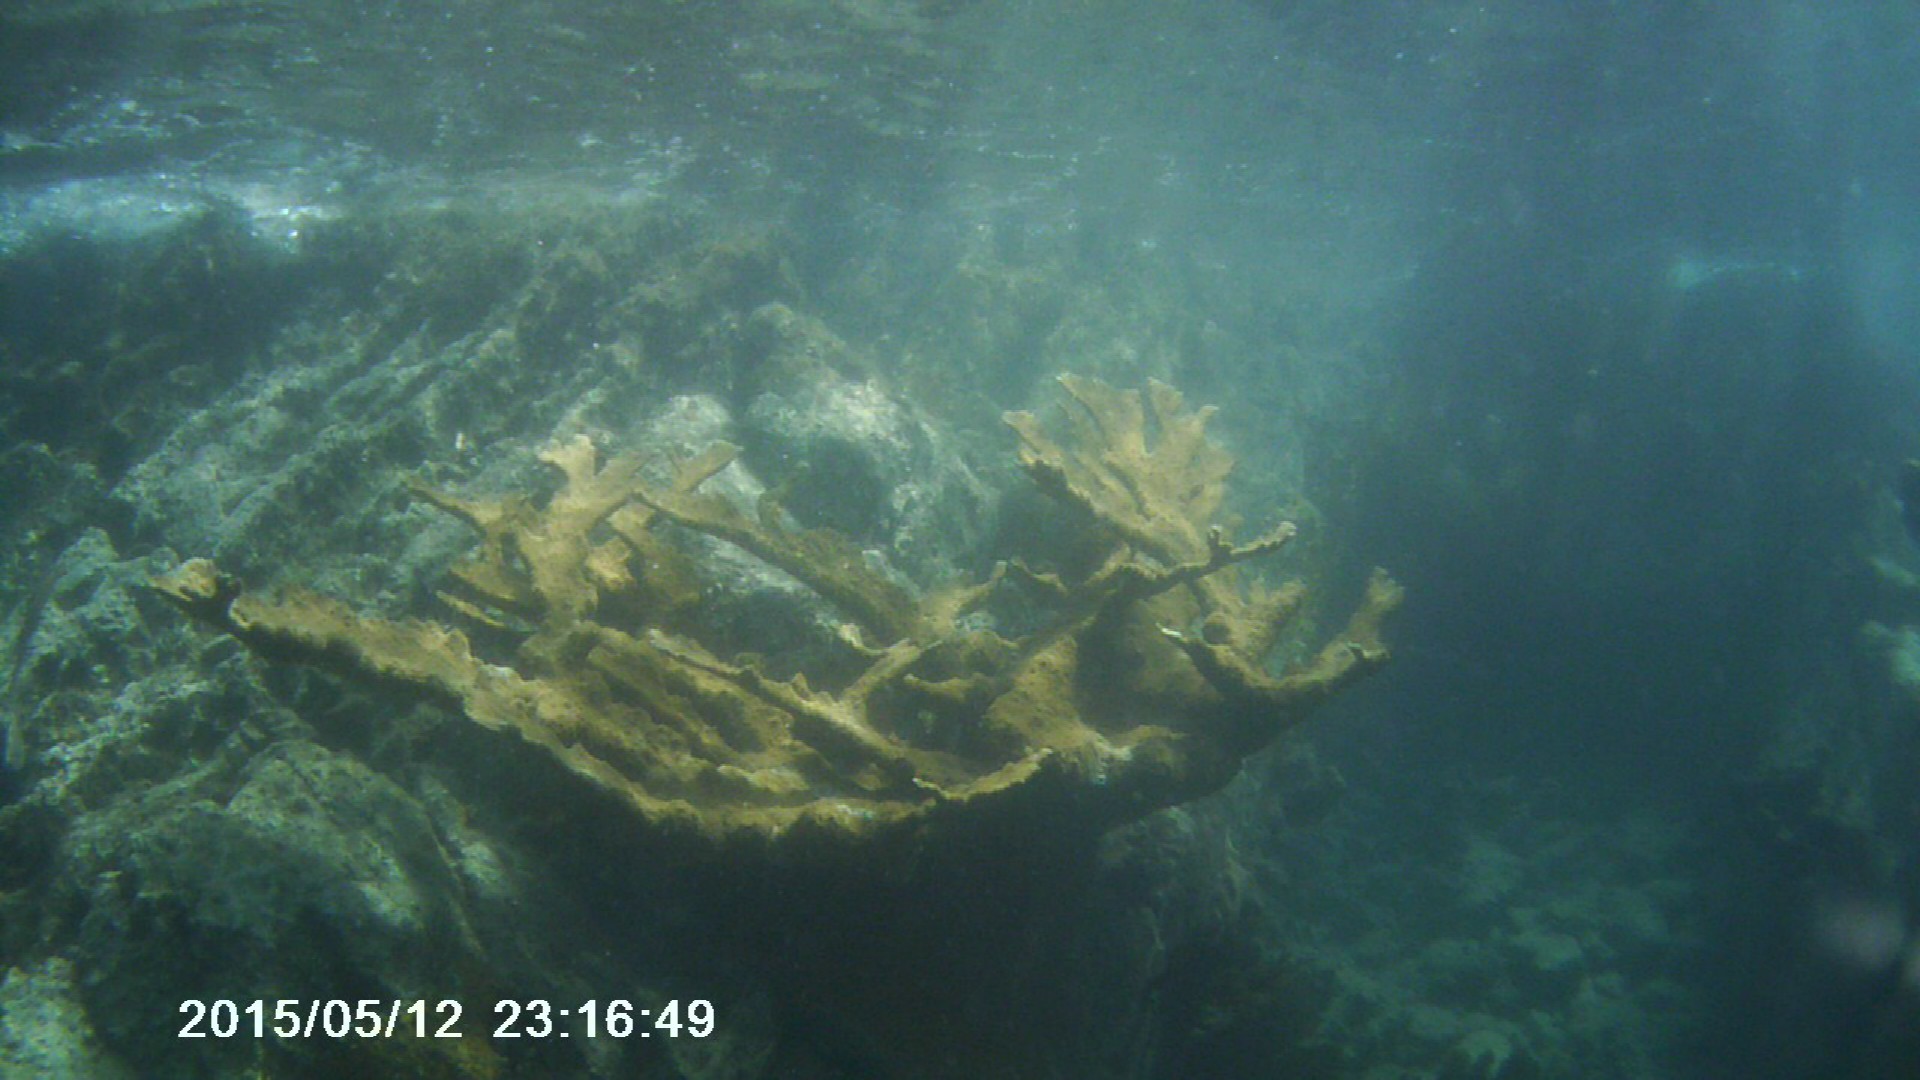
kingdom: Animalia
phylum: Cnidaria
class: Anthozoa
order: Scleractinia
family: Acroporidae
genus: Acropora
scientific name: Acropora palmata
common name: Elkhorn coral
